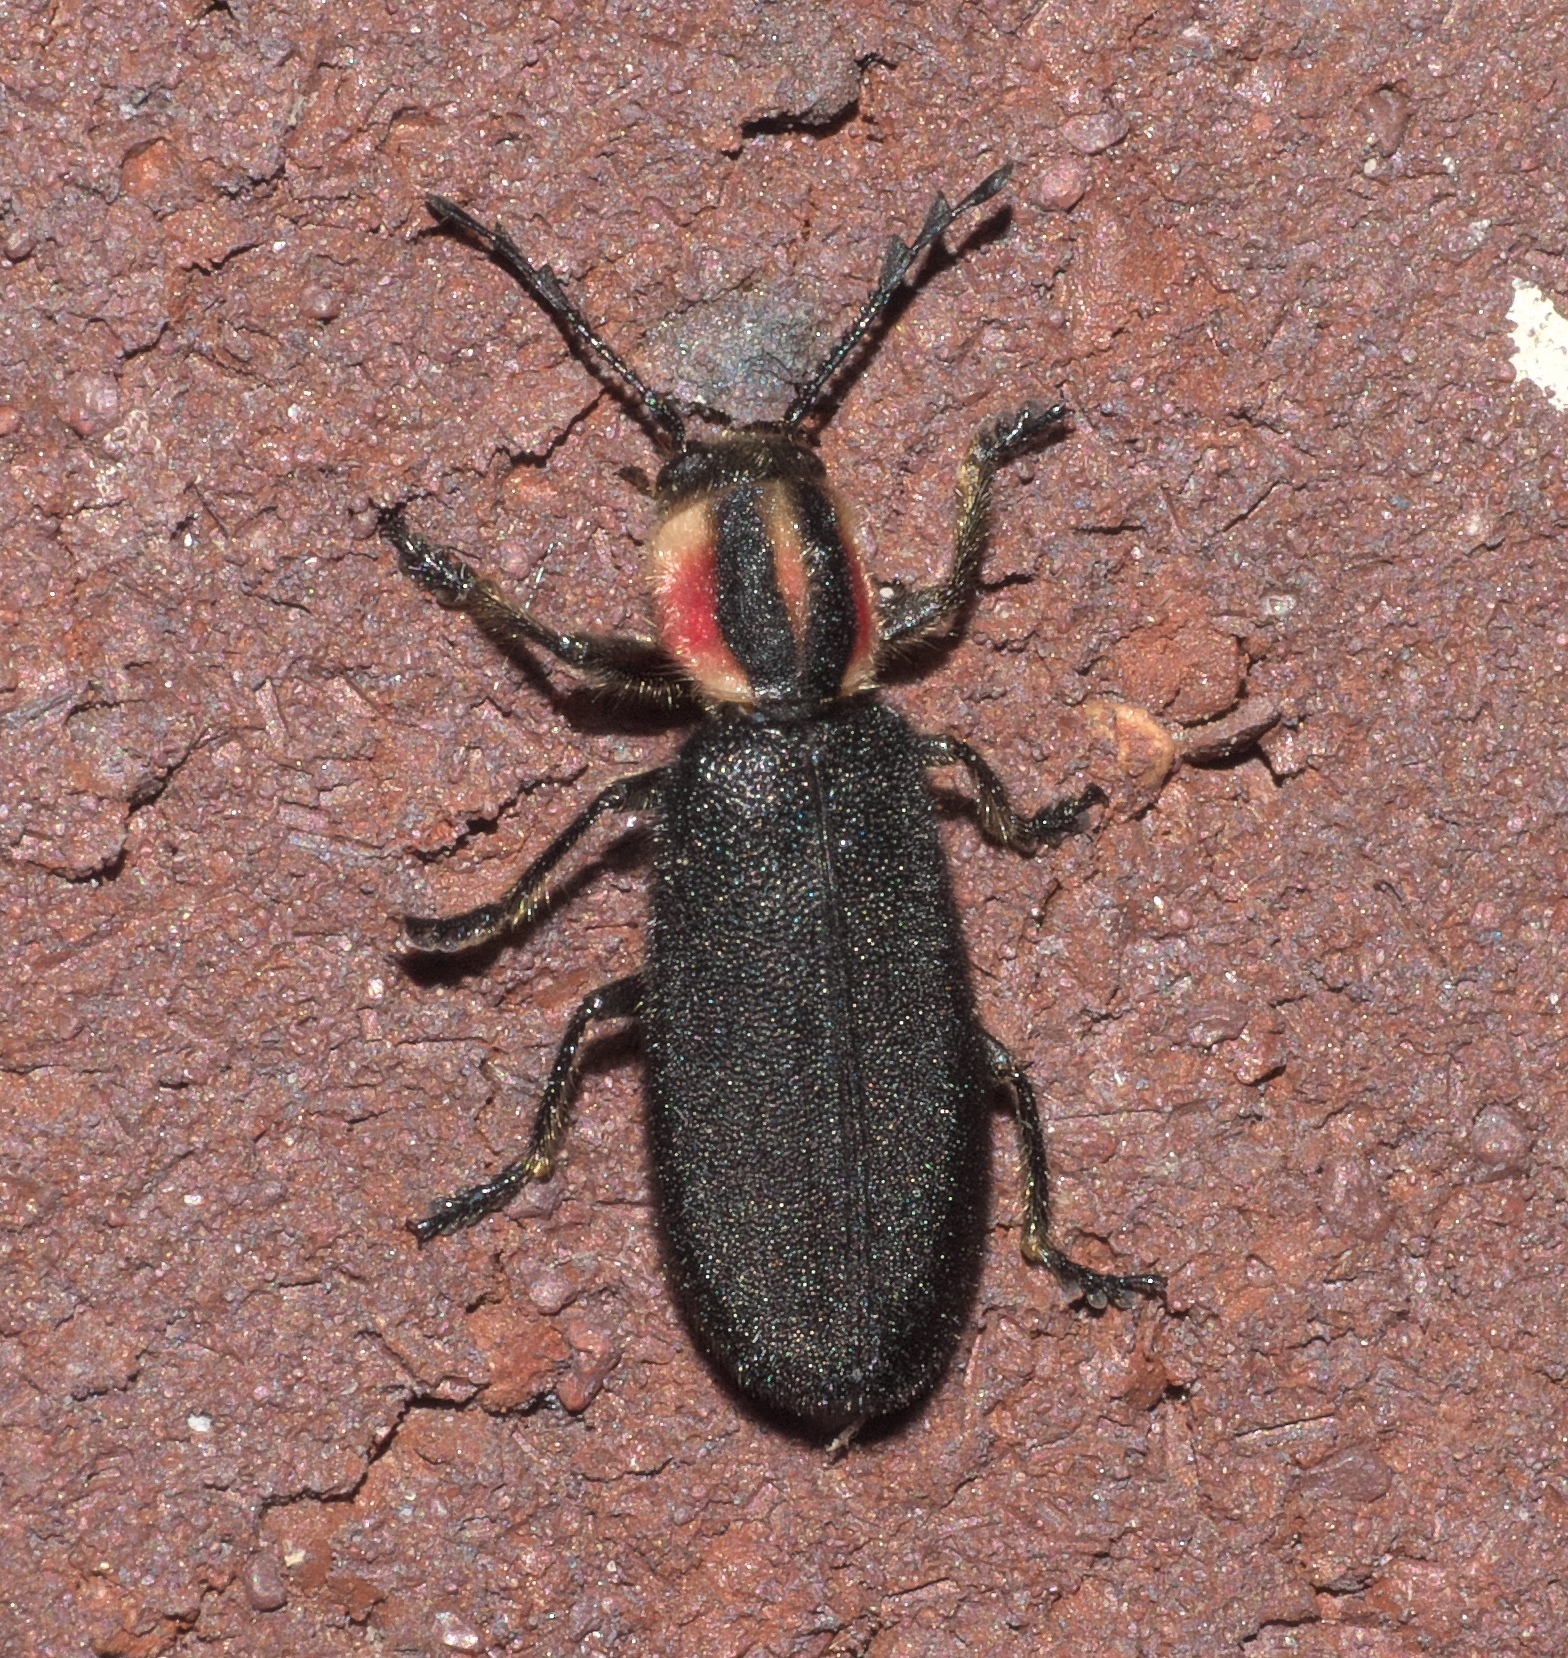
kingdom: Animalia
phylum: Arthropoda
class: Insecta
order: Coleoptera
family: Cleridae
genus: Chariessa
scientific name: Chariessa pilosa
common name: Pilose checkered beetle
